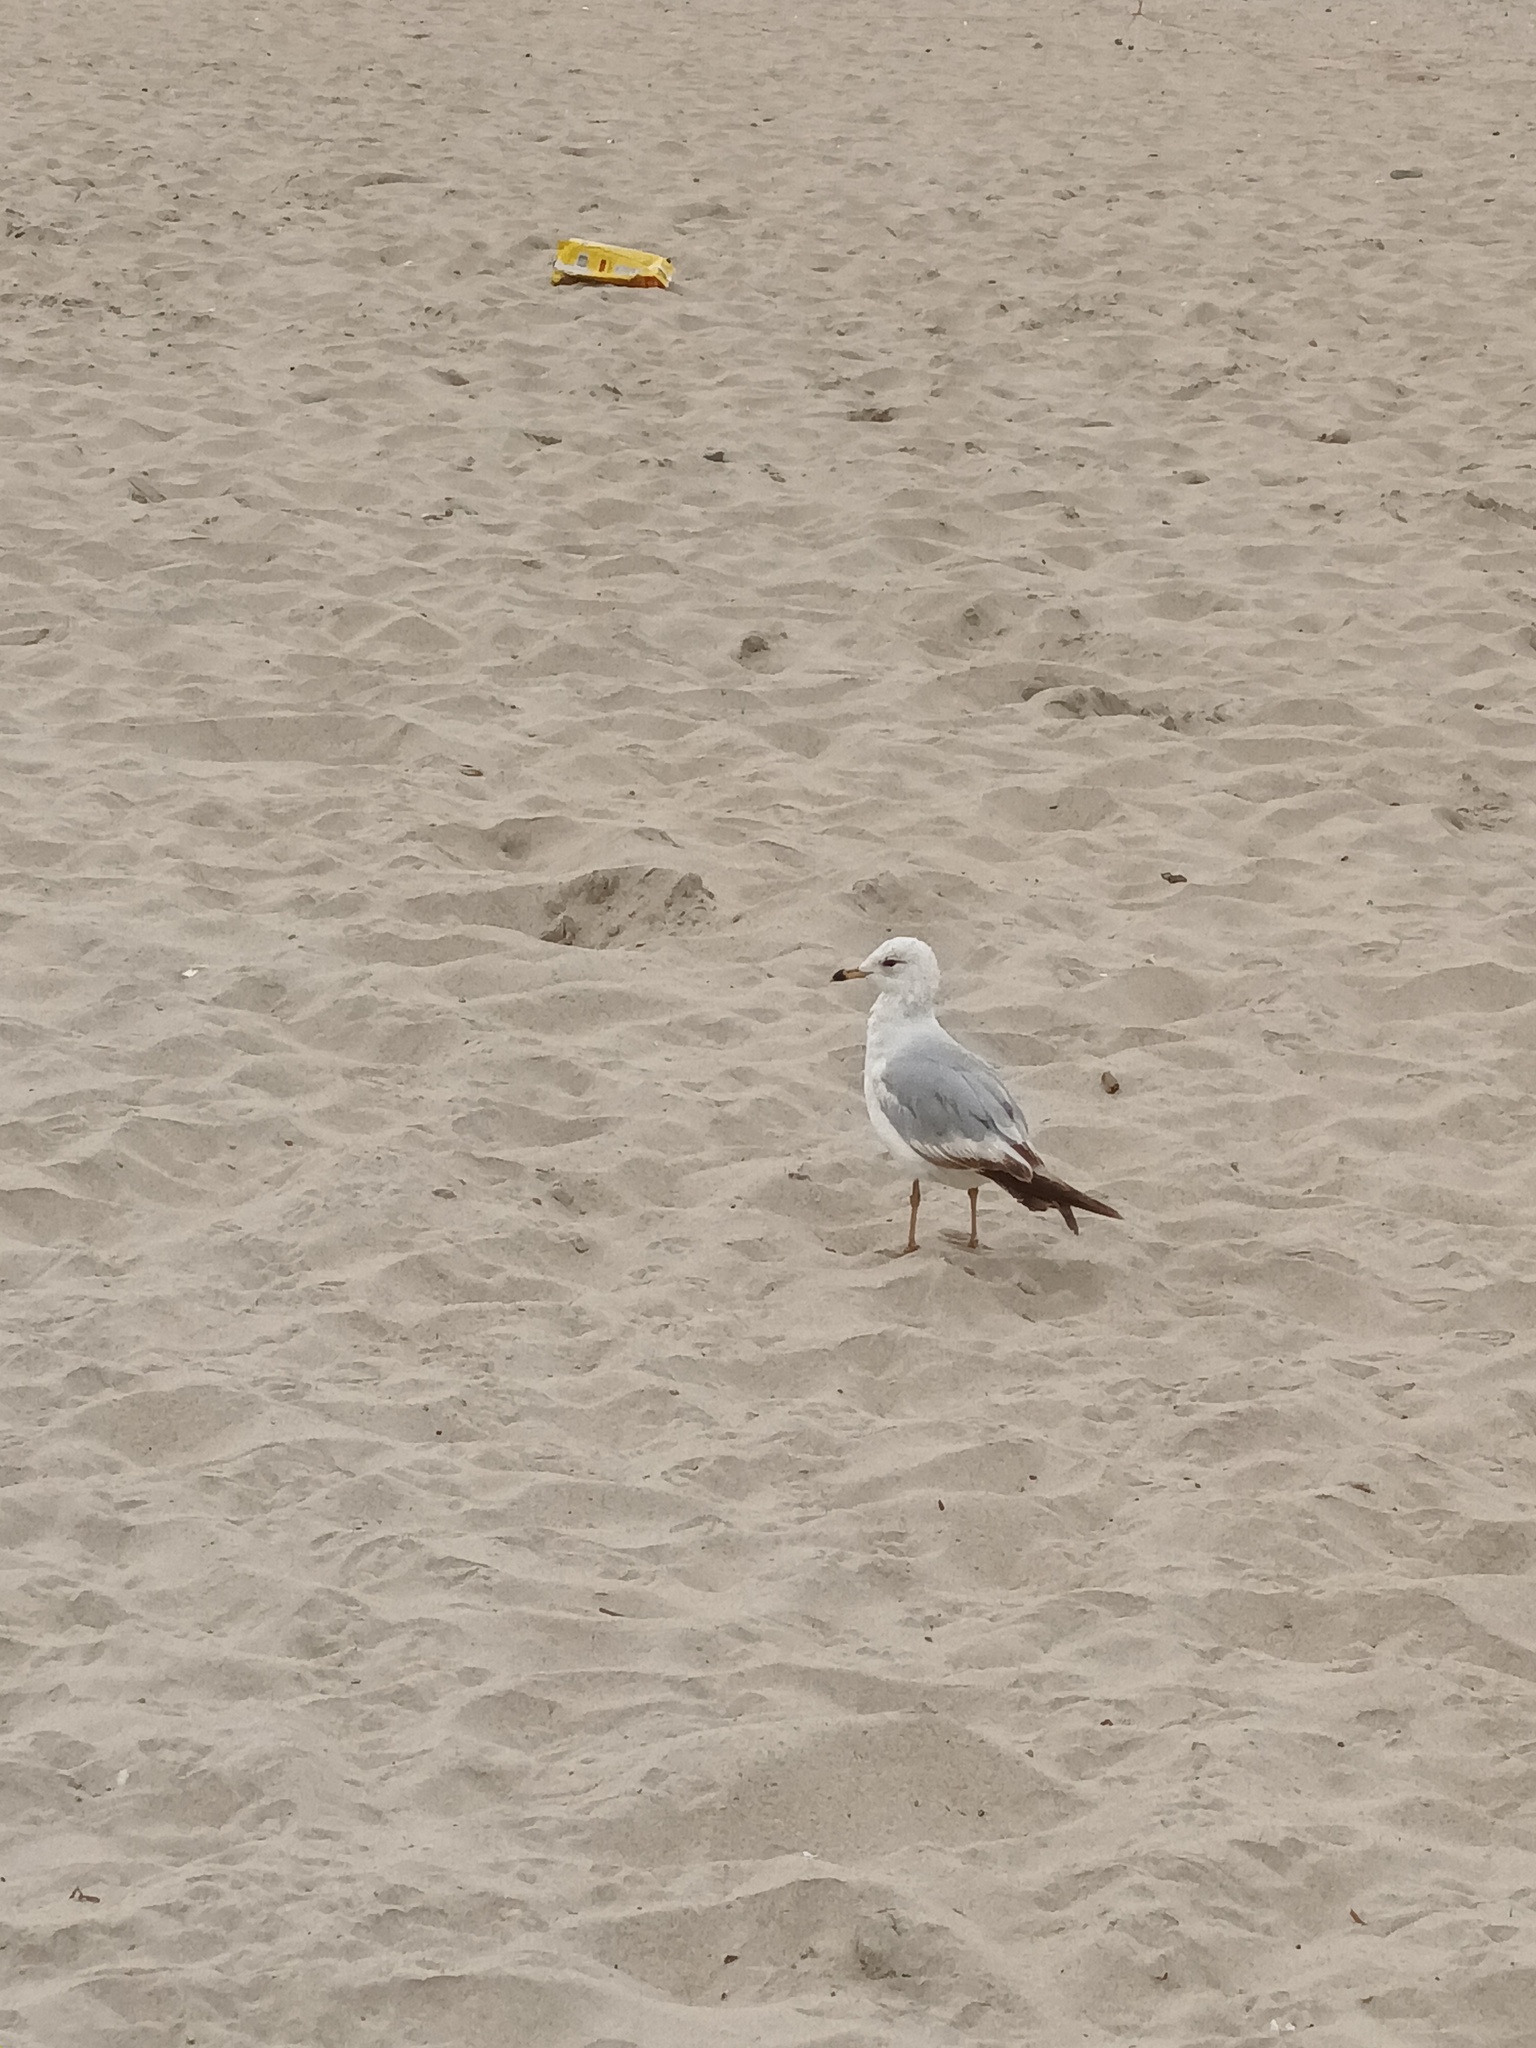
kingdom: Animalia
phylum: Chordata
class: Aves
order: Charadriiformes
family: Laridae
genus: Larus
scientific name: Larus delawarensis
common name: Ring-billed gull
